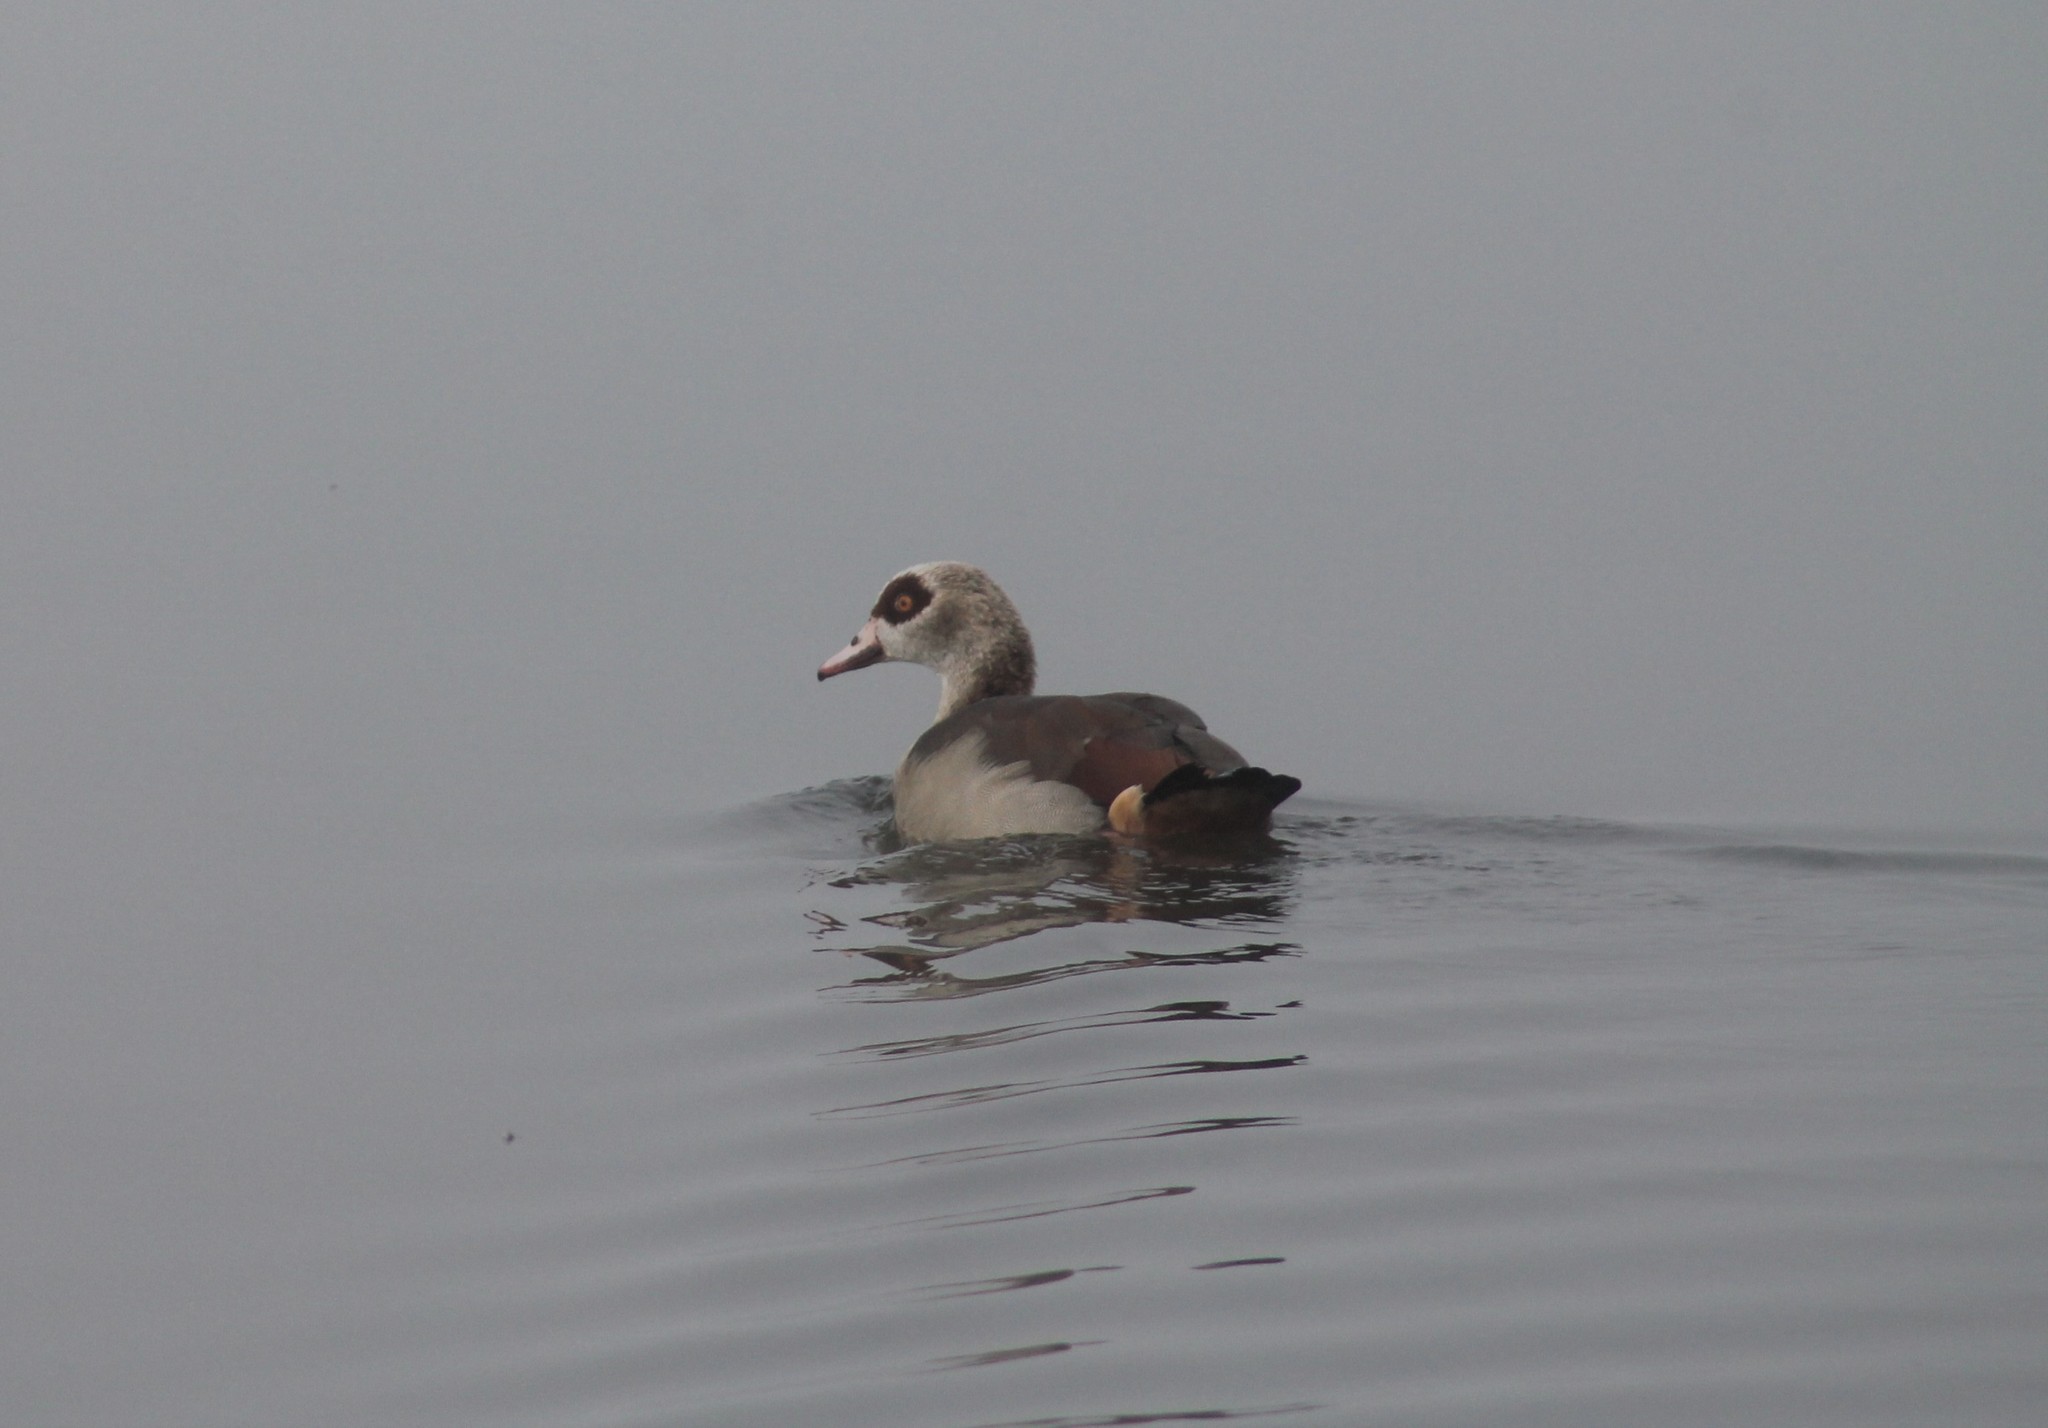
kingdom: Animalia
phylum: Chordata
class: Aves
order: Anseriformes
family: Anatidae
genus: Alopochen
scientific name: Alopochen aegyptiaca
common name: Egyptian goose
